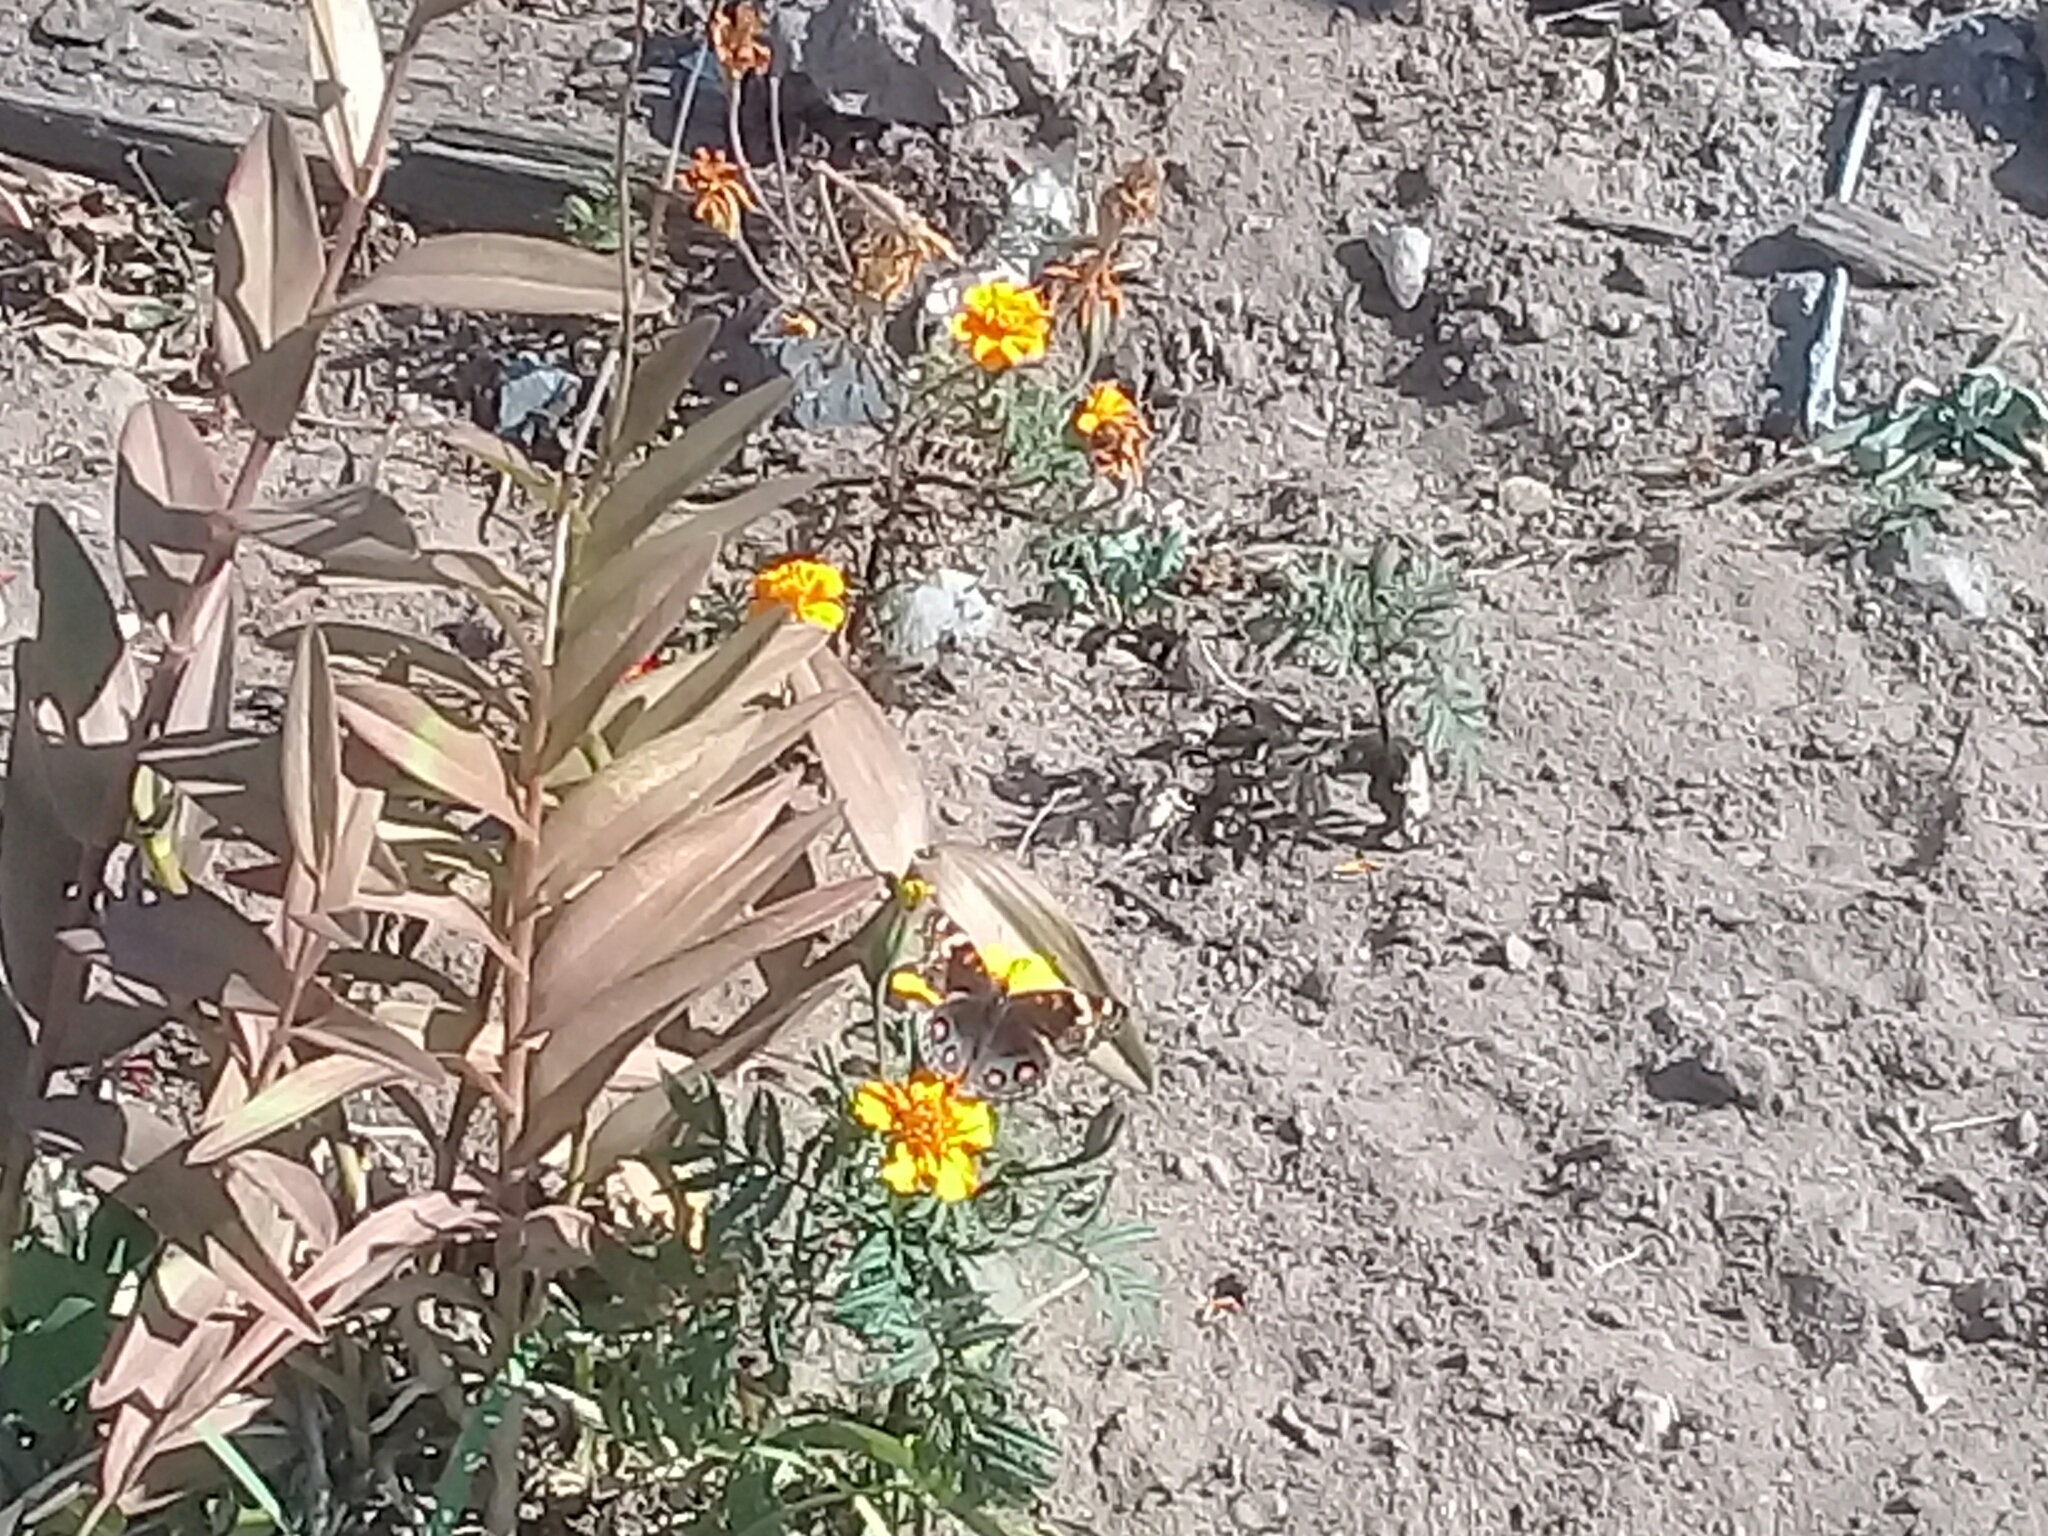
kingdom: Animalia
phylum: Arthropoda
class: Insecta
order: Lepidoptera
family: Nymphalidae
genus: Junonia
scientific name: Junonia orithya
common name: Blue pansy
